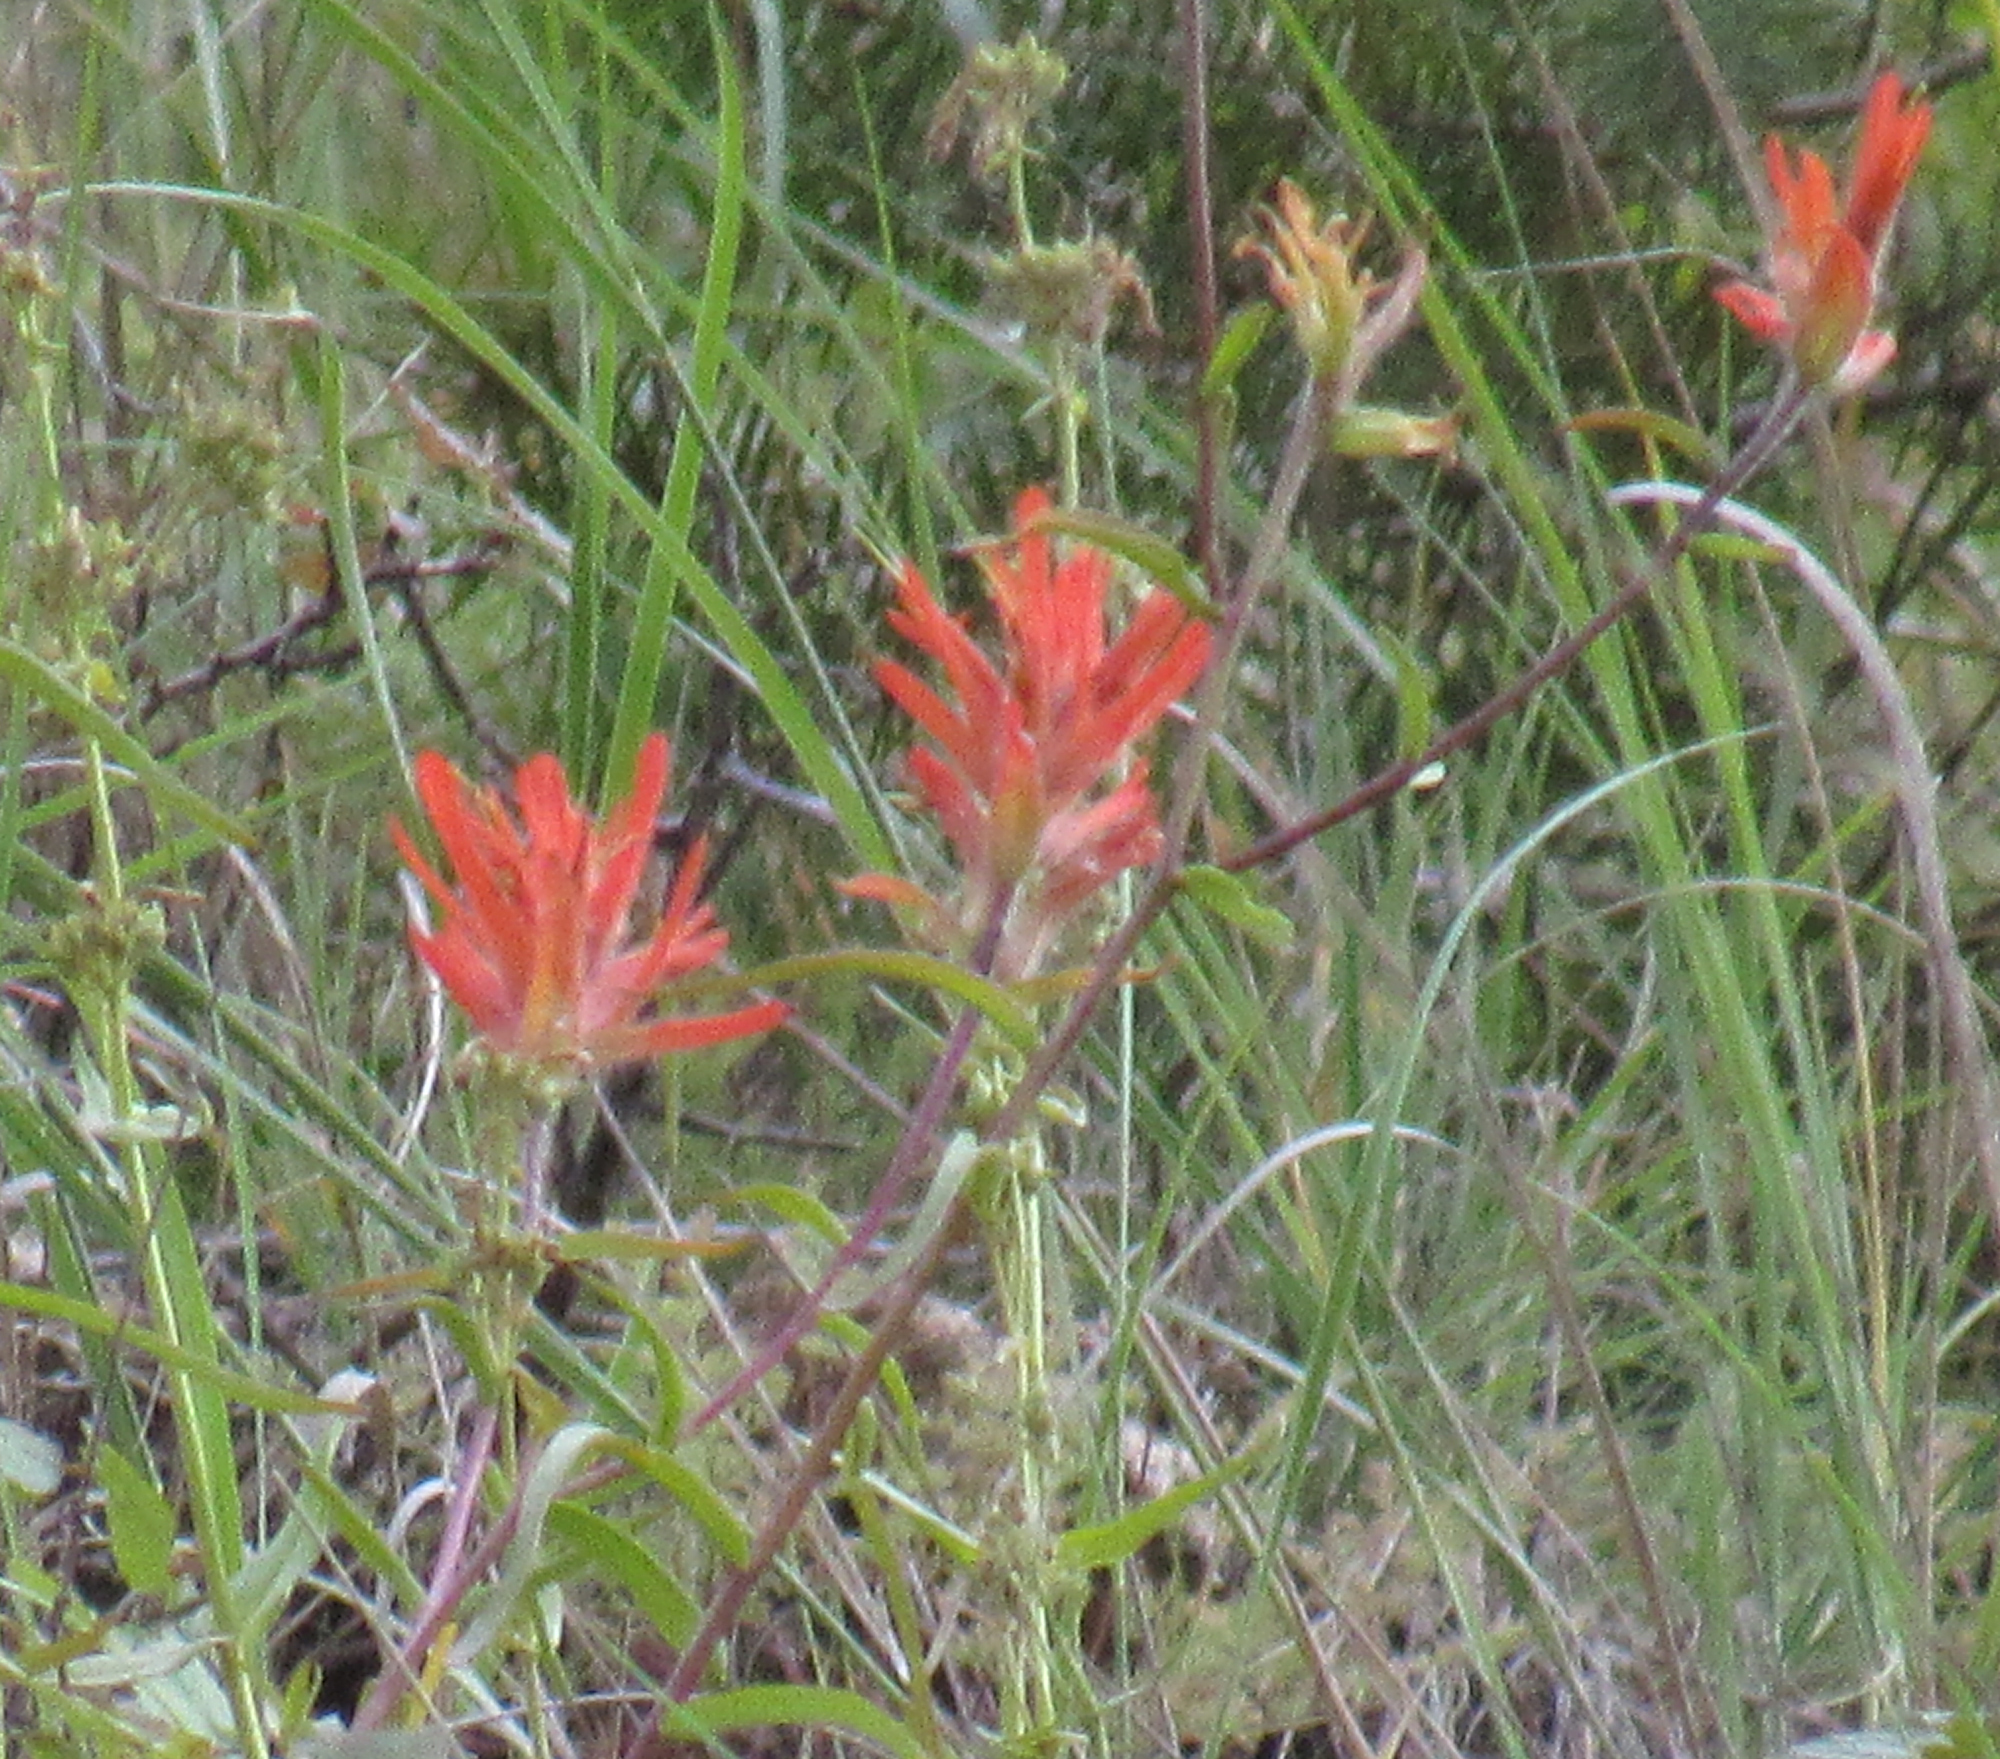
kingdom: Plantae
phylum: Tracheophyta
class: Magnoliopsida
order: Lamiales
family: Orobanchaceae
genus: Castilleja
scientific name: Castilleja miniata
